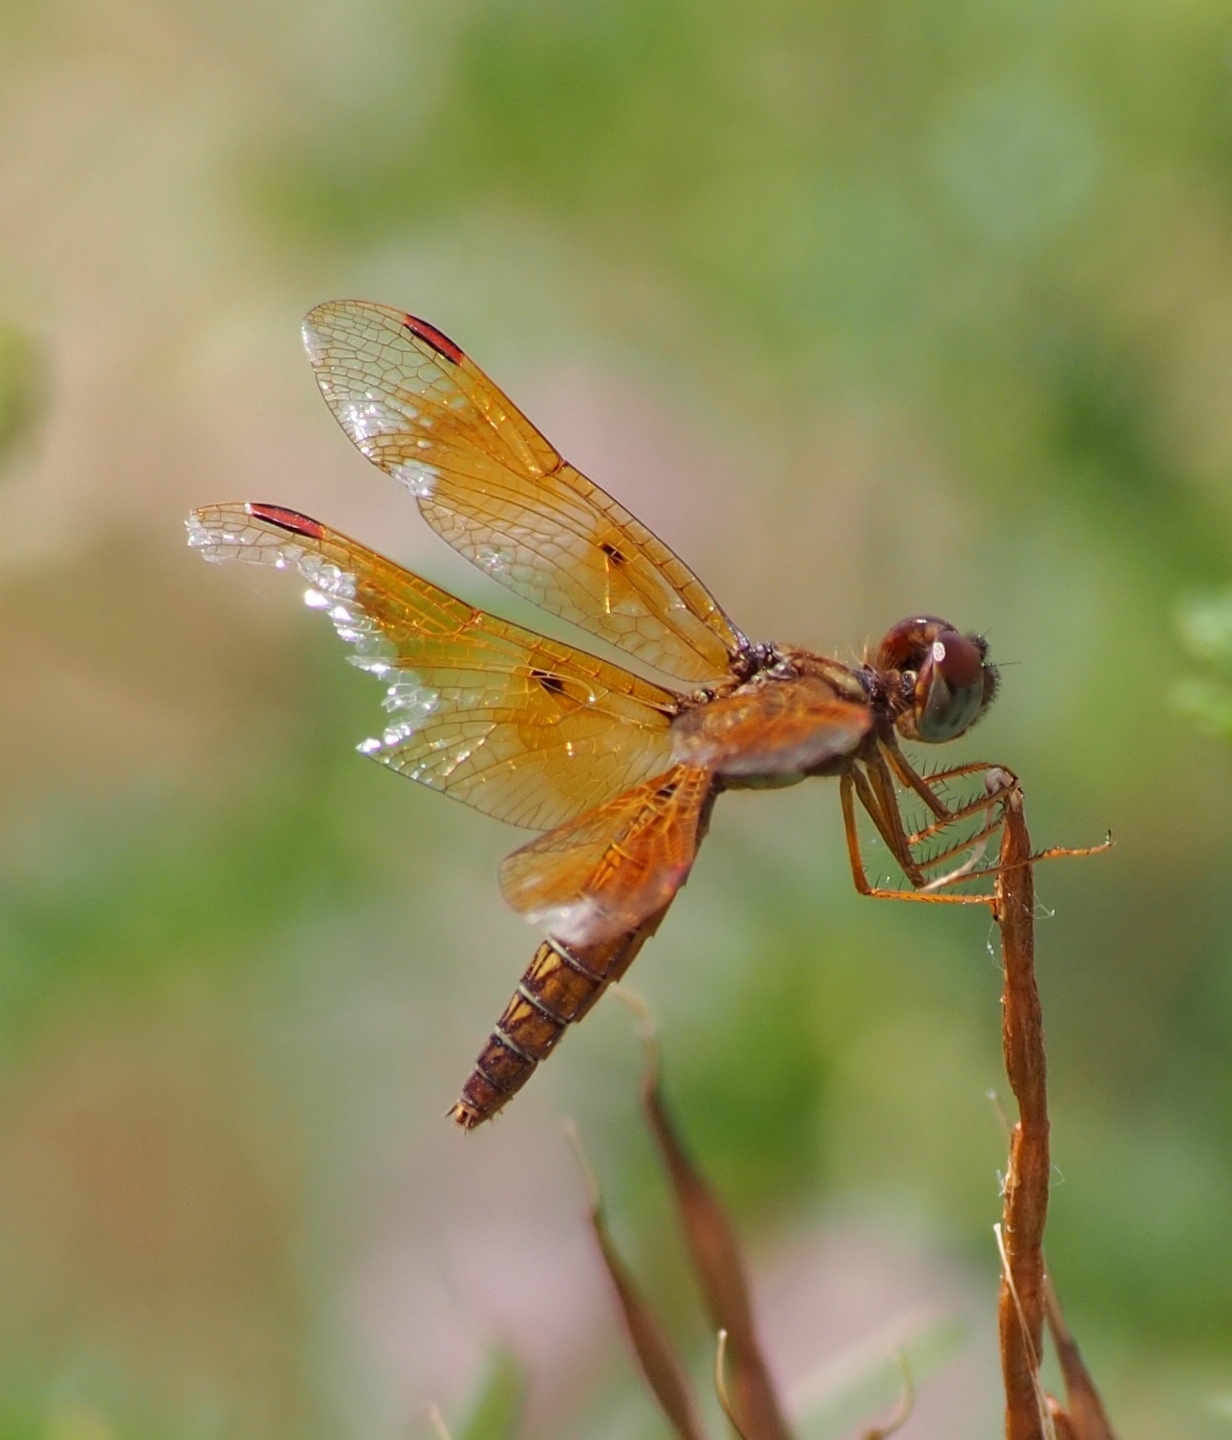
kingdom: Animalia
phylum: Arthropoda
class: Insecta
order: Odonata
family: Libellulidae
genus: Perithemis
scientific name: Perithemis tenera
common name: Eastern amberwing
